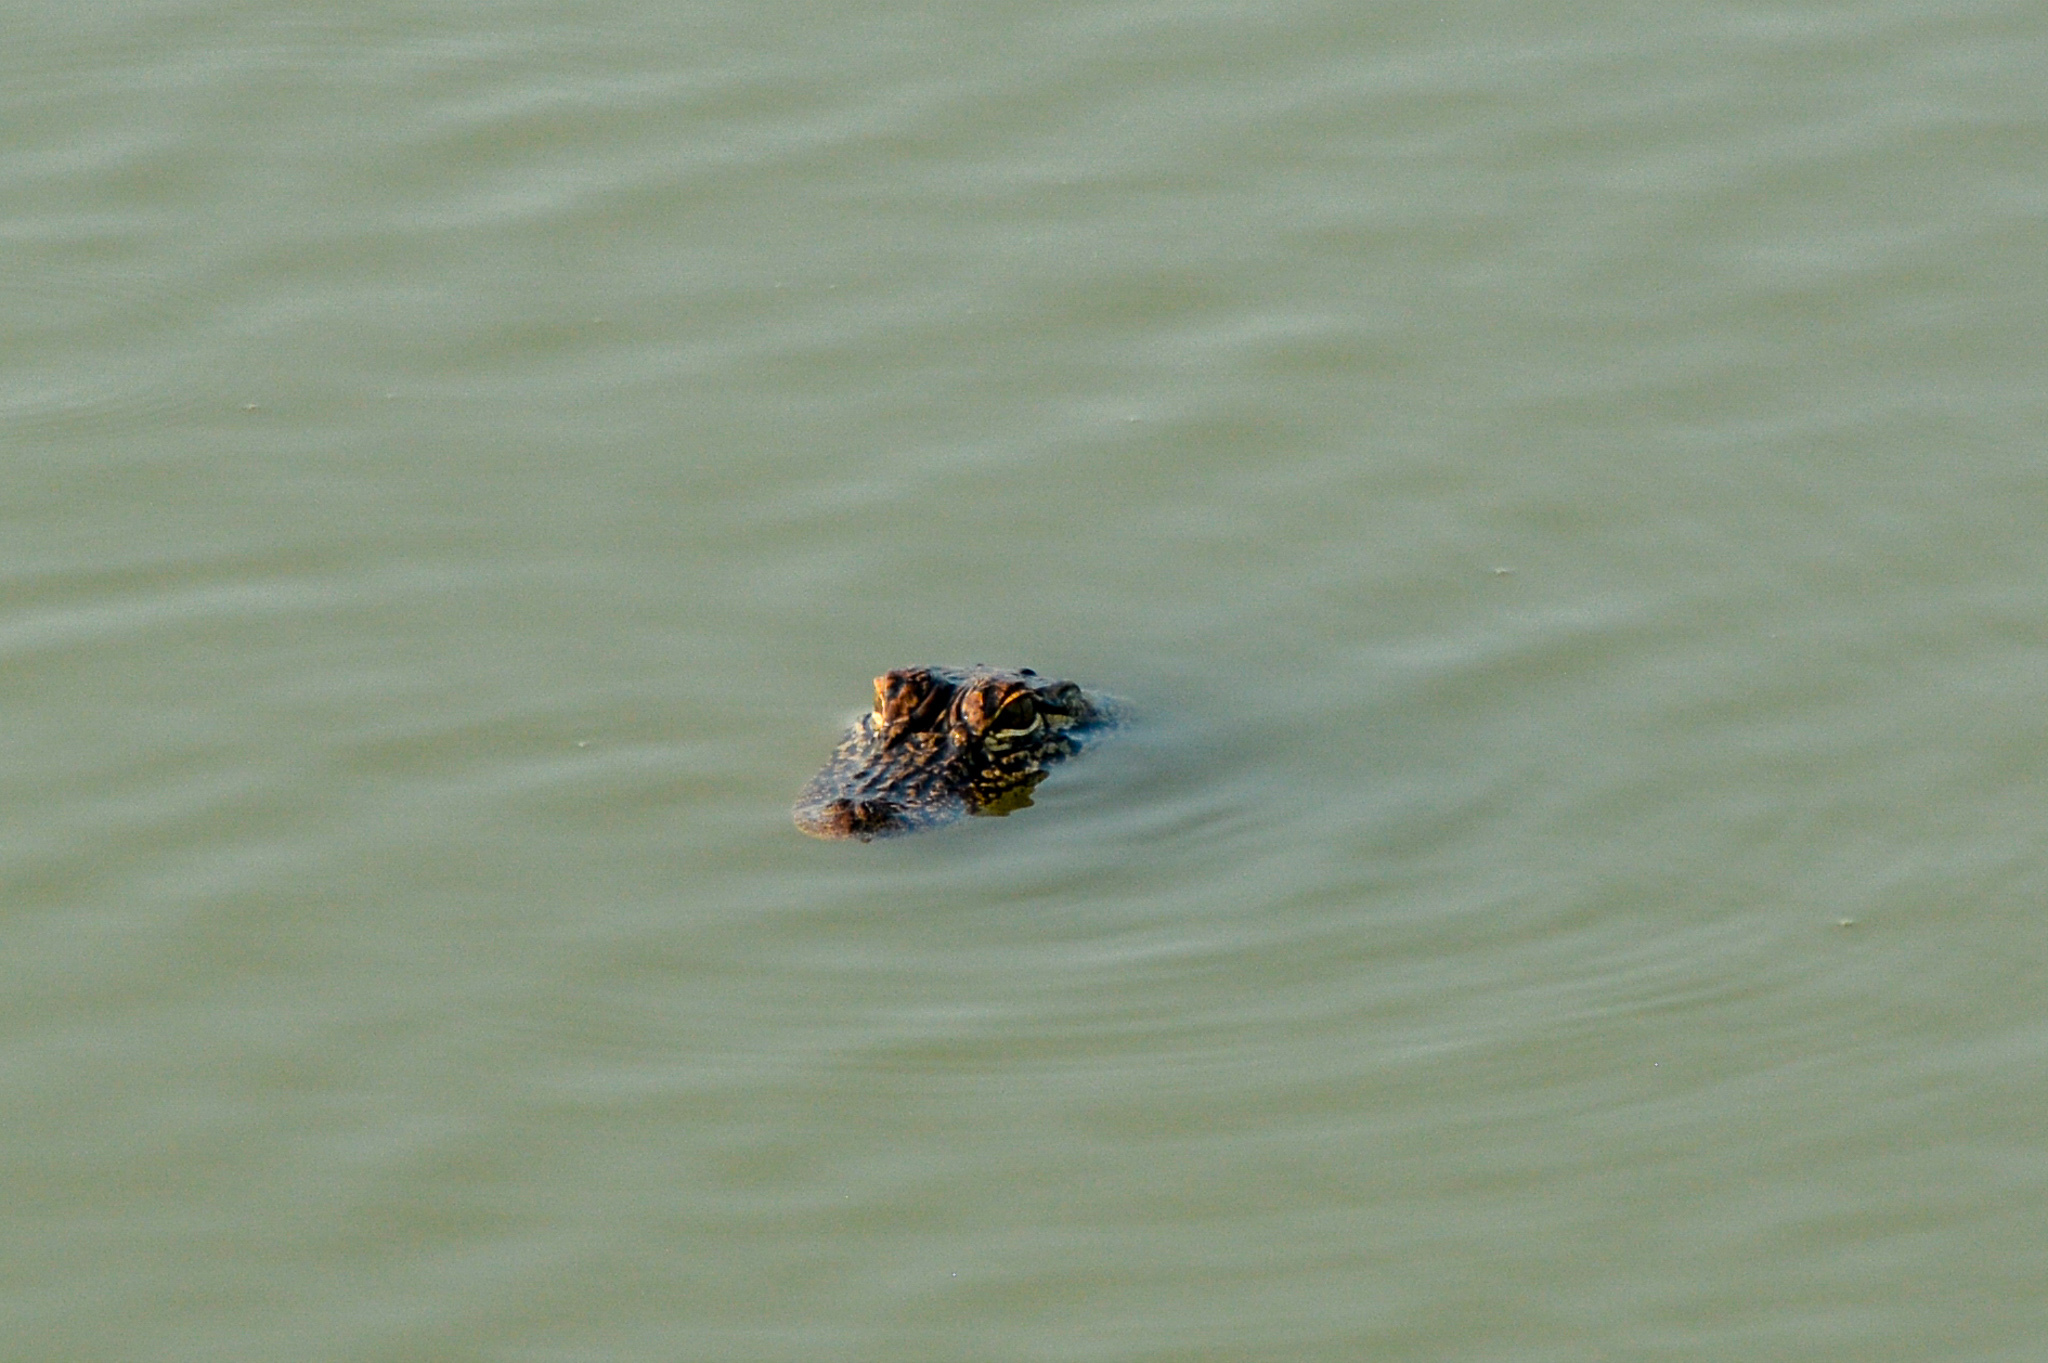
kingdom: Animalia
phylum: Chordata
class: Crocodylia
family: Alligatoridae
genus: Alligator
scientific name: Alligator mississippiensis
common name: American alligator
